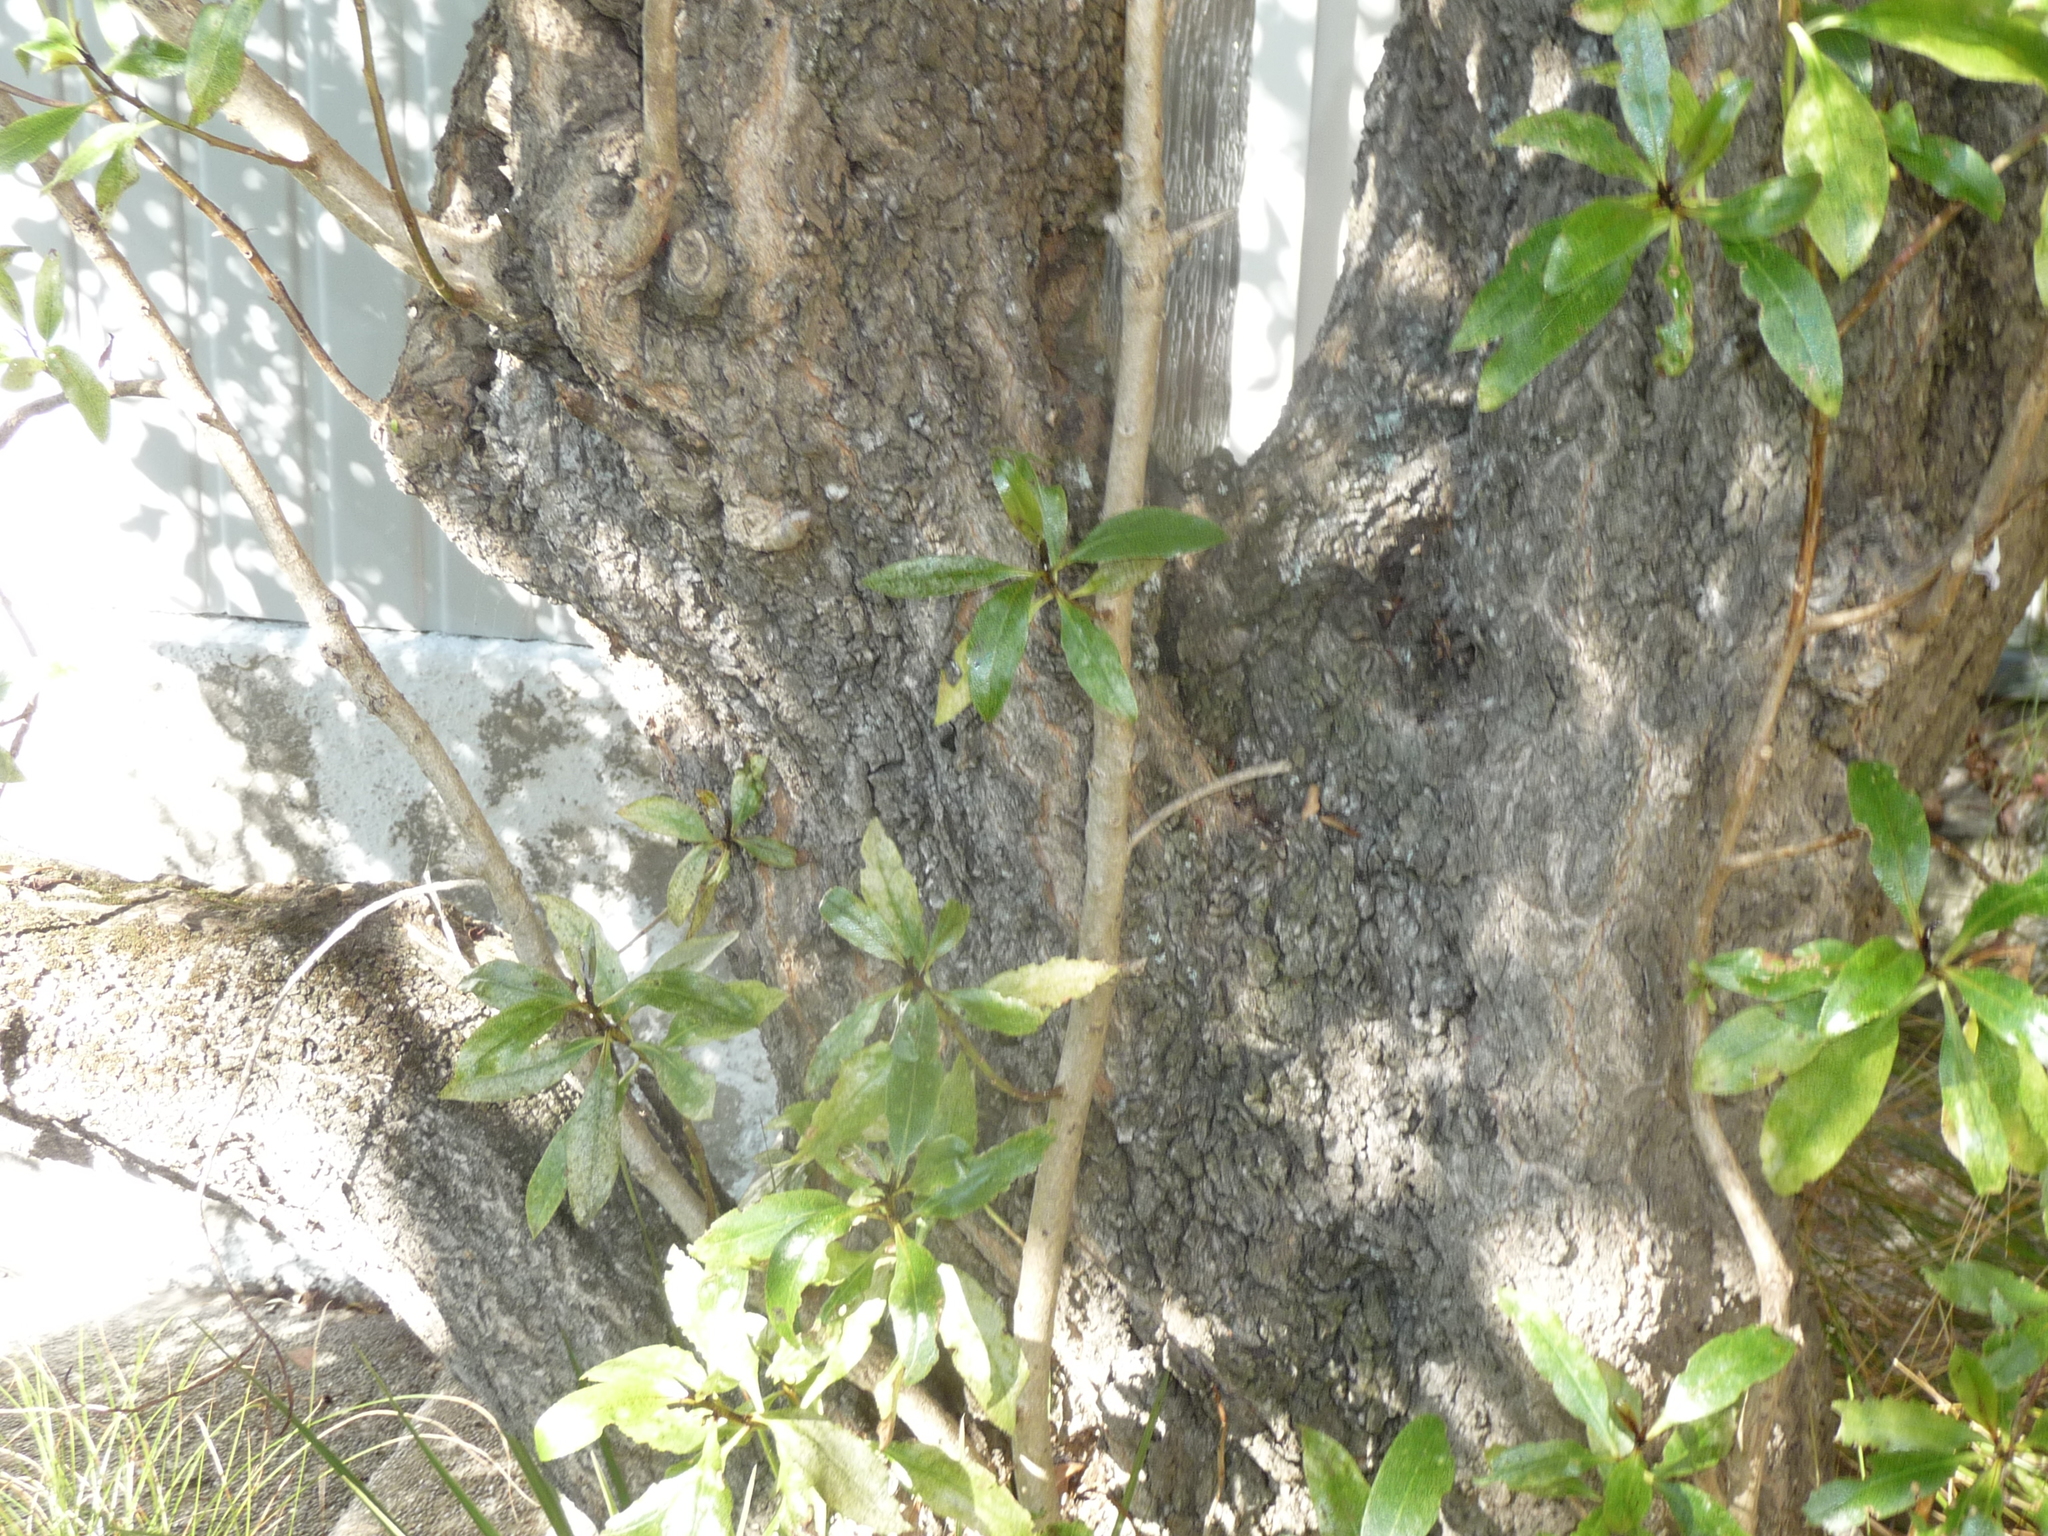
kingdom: Plantae
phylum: Tracheophyta
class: Magnoliopsida
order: Lamiales
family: Scrophulariaceae
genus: Myoporum
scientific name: Myoporum laetum
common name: Ngaio tree
